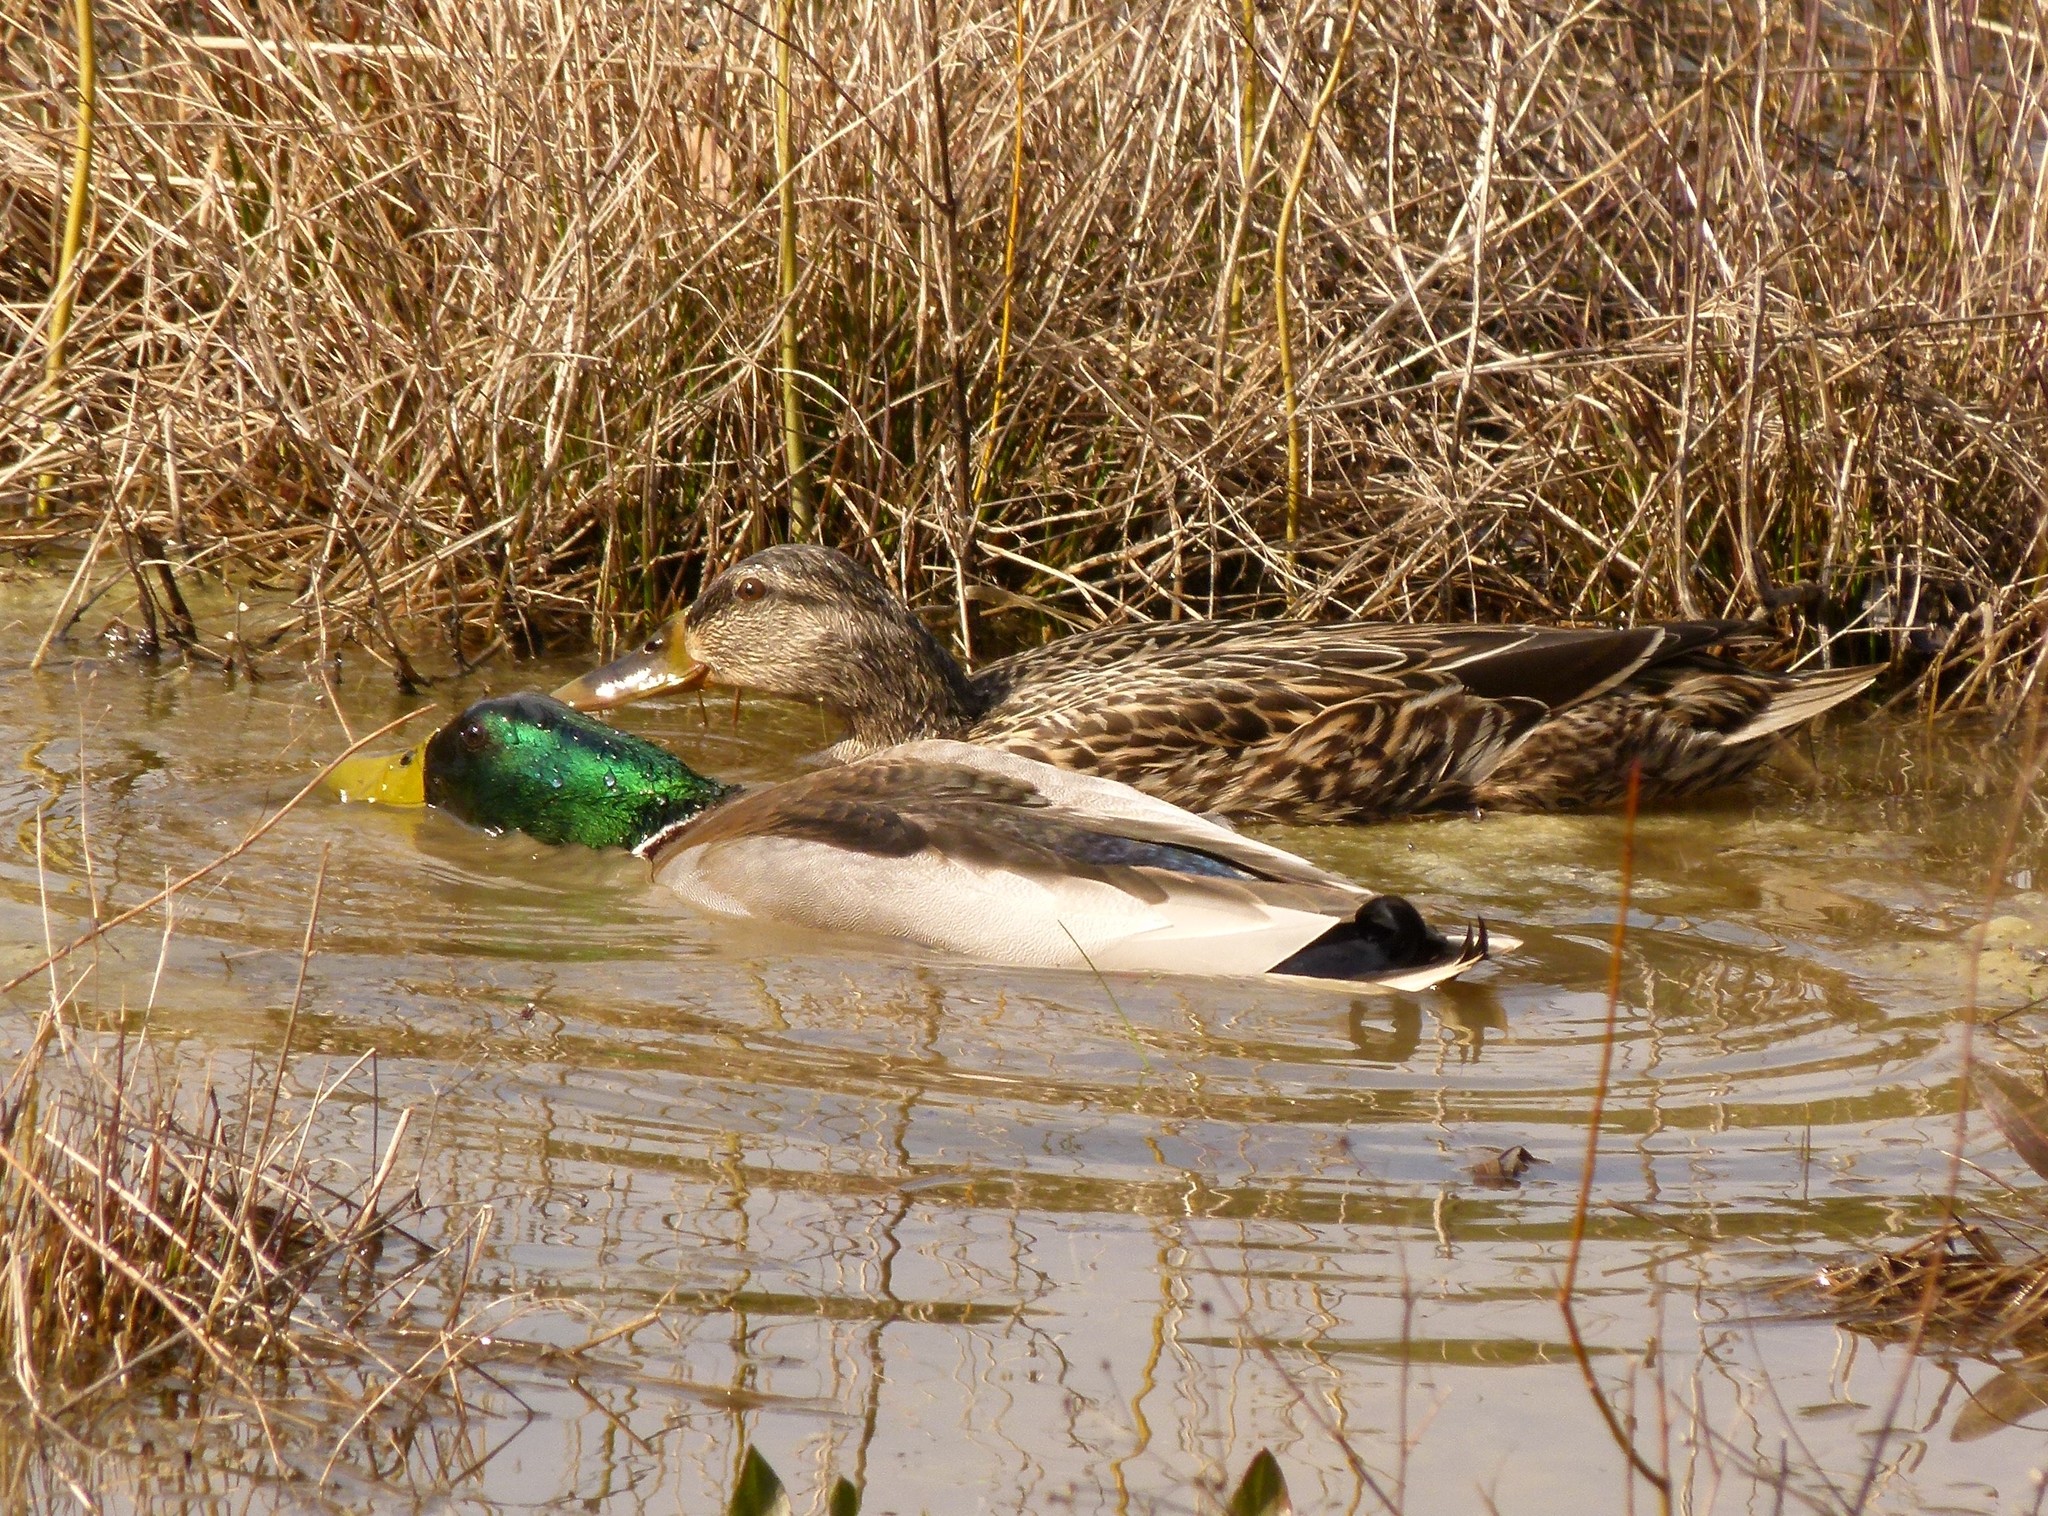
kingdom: Animalia
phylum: Chordata
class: Aves
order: Anseriformes
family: Anatidae
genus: Anas
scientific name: Anas platyrhynchos
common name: Mallard
